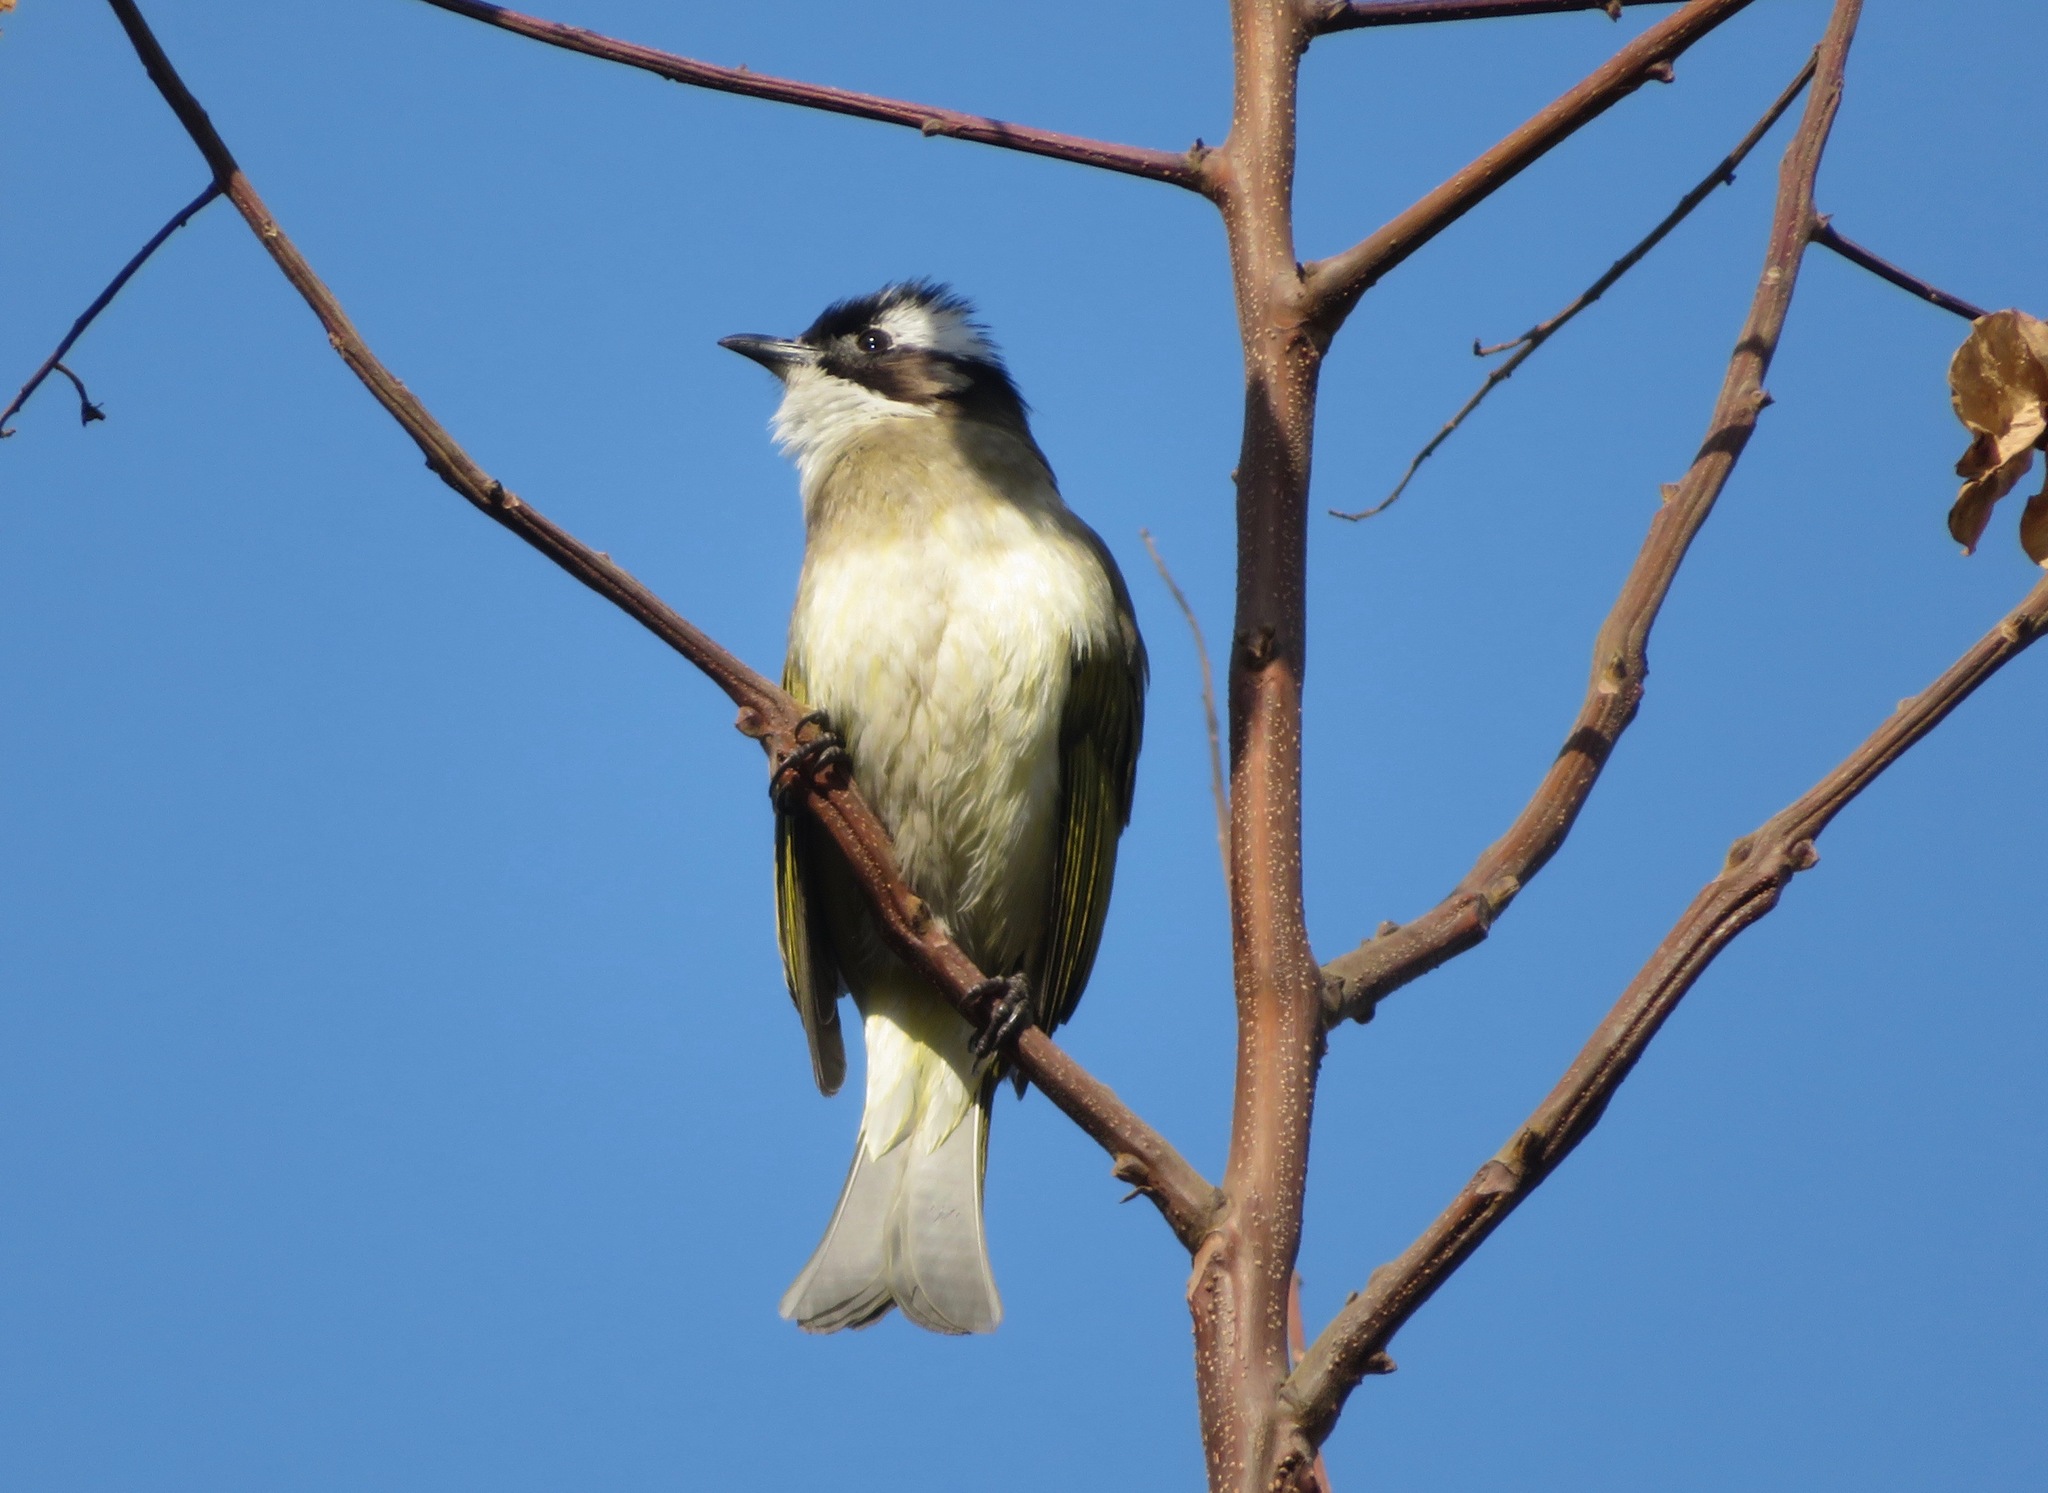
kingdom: Animalia
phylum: Chordata
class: Aves
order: Passeriformes
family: Pycnonotidae
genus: Pycnonotus
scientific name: Pycnonotus sinensis
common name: Light-vented bulbul
